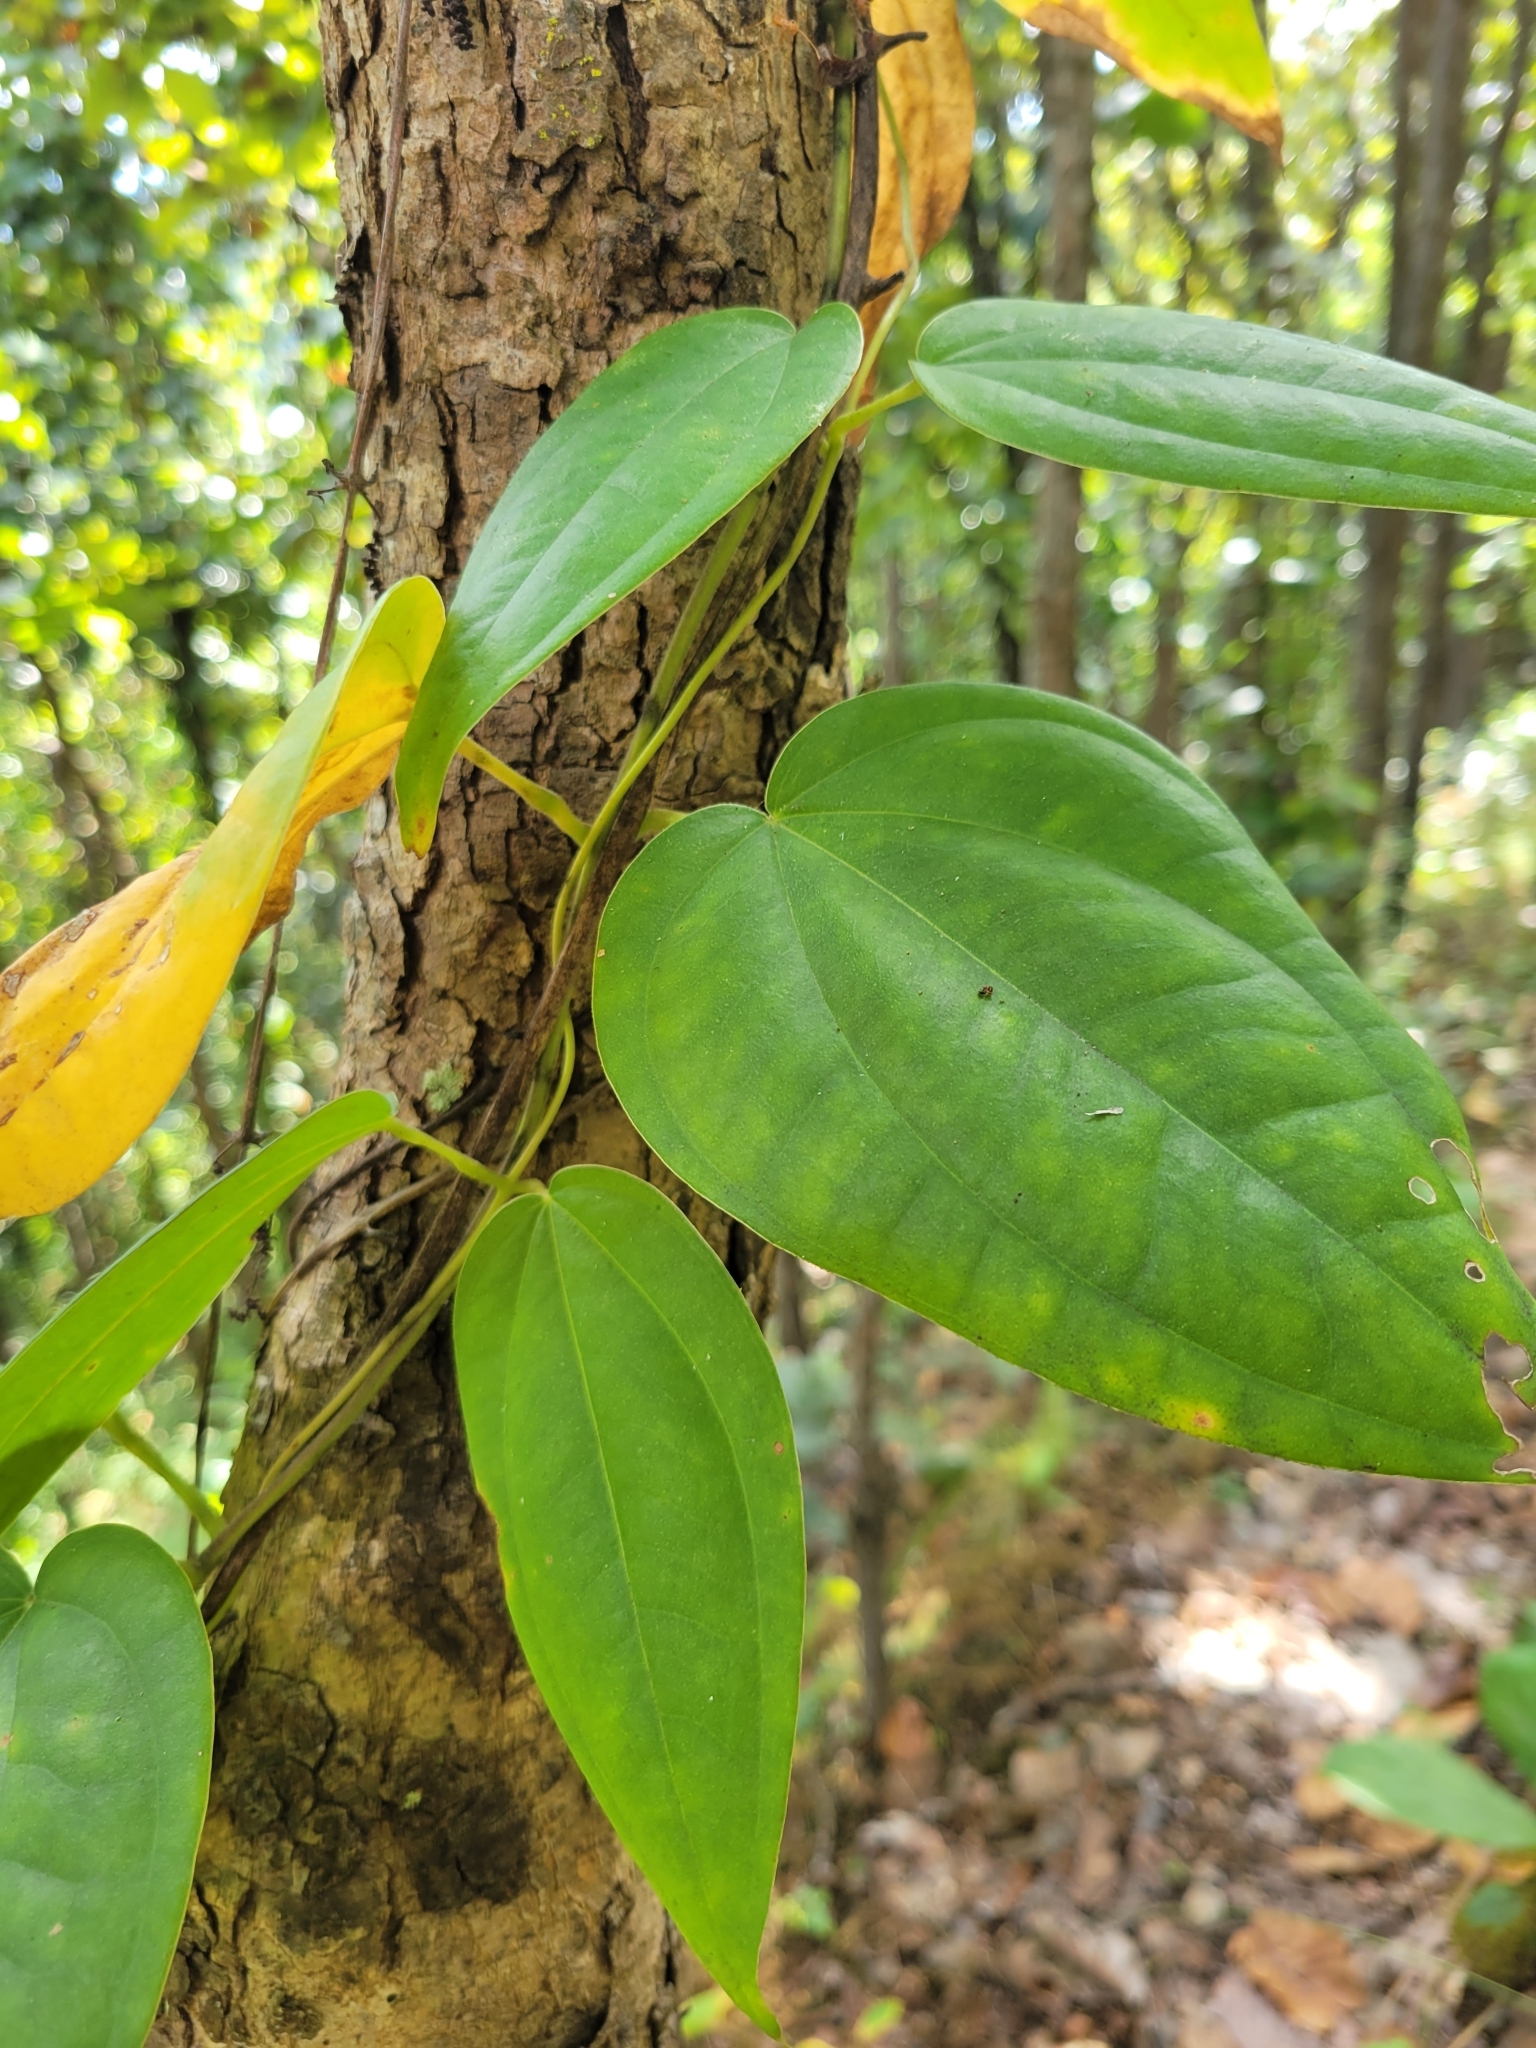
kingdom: Plantae
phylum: Tracheophyta
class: Magnoliopsida
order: Lamiales
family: Acanthaceae
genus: Thunbergia
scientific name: Thunbergia laurifolia
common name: Laurel-leaved thunbergia
